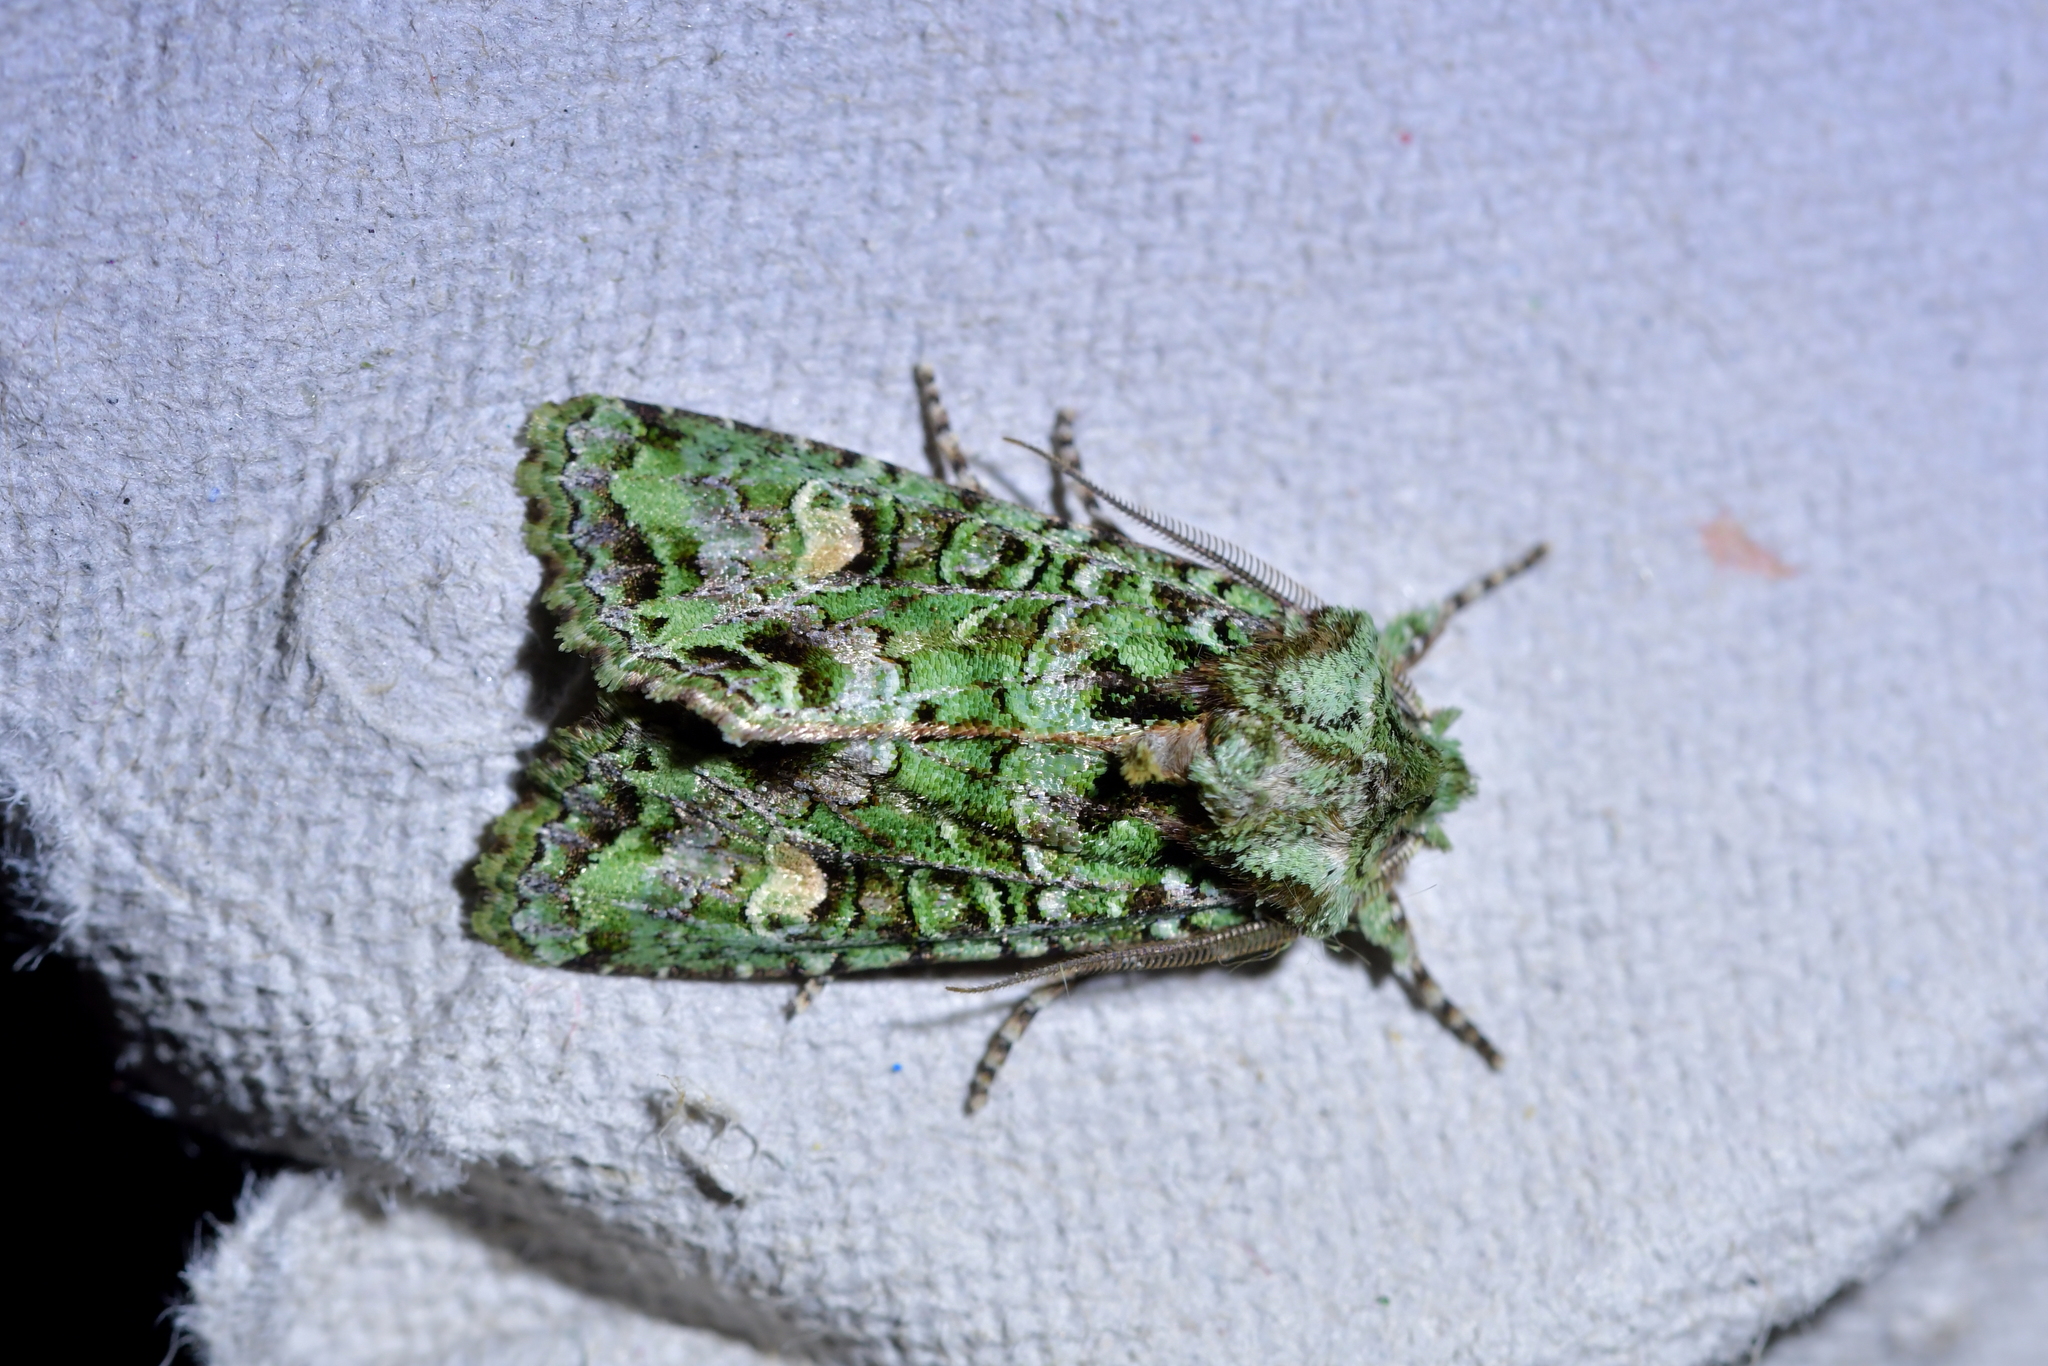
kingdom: Animalia
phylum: Arthropoda
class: Insecta
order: Lepidoptera
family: Noctuidae
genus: Ichneutica
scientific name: Ichneutica
